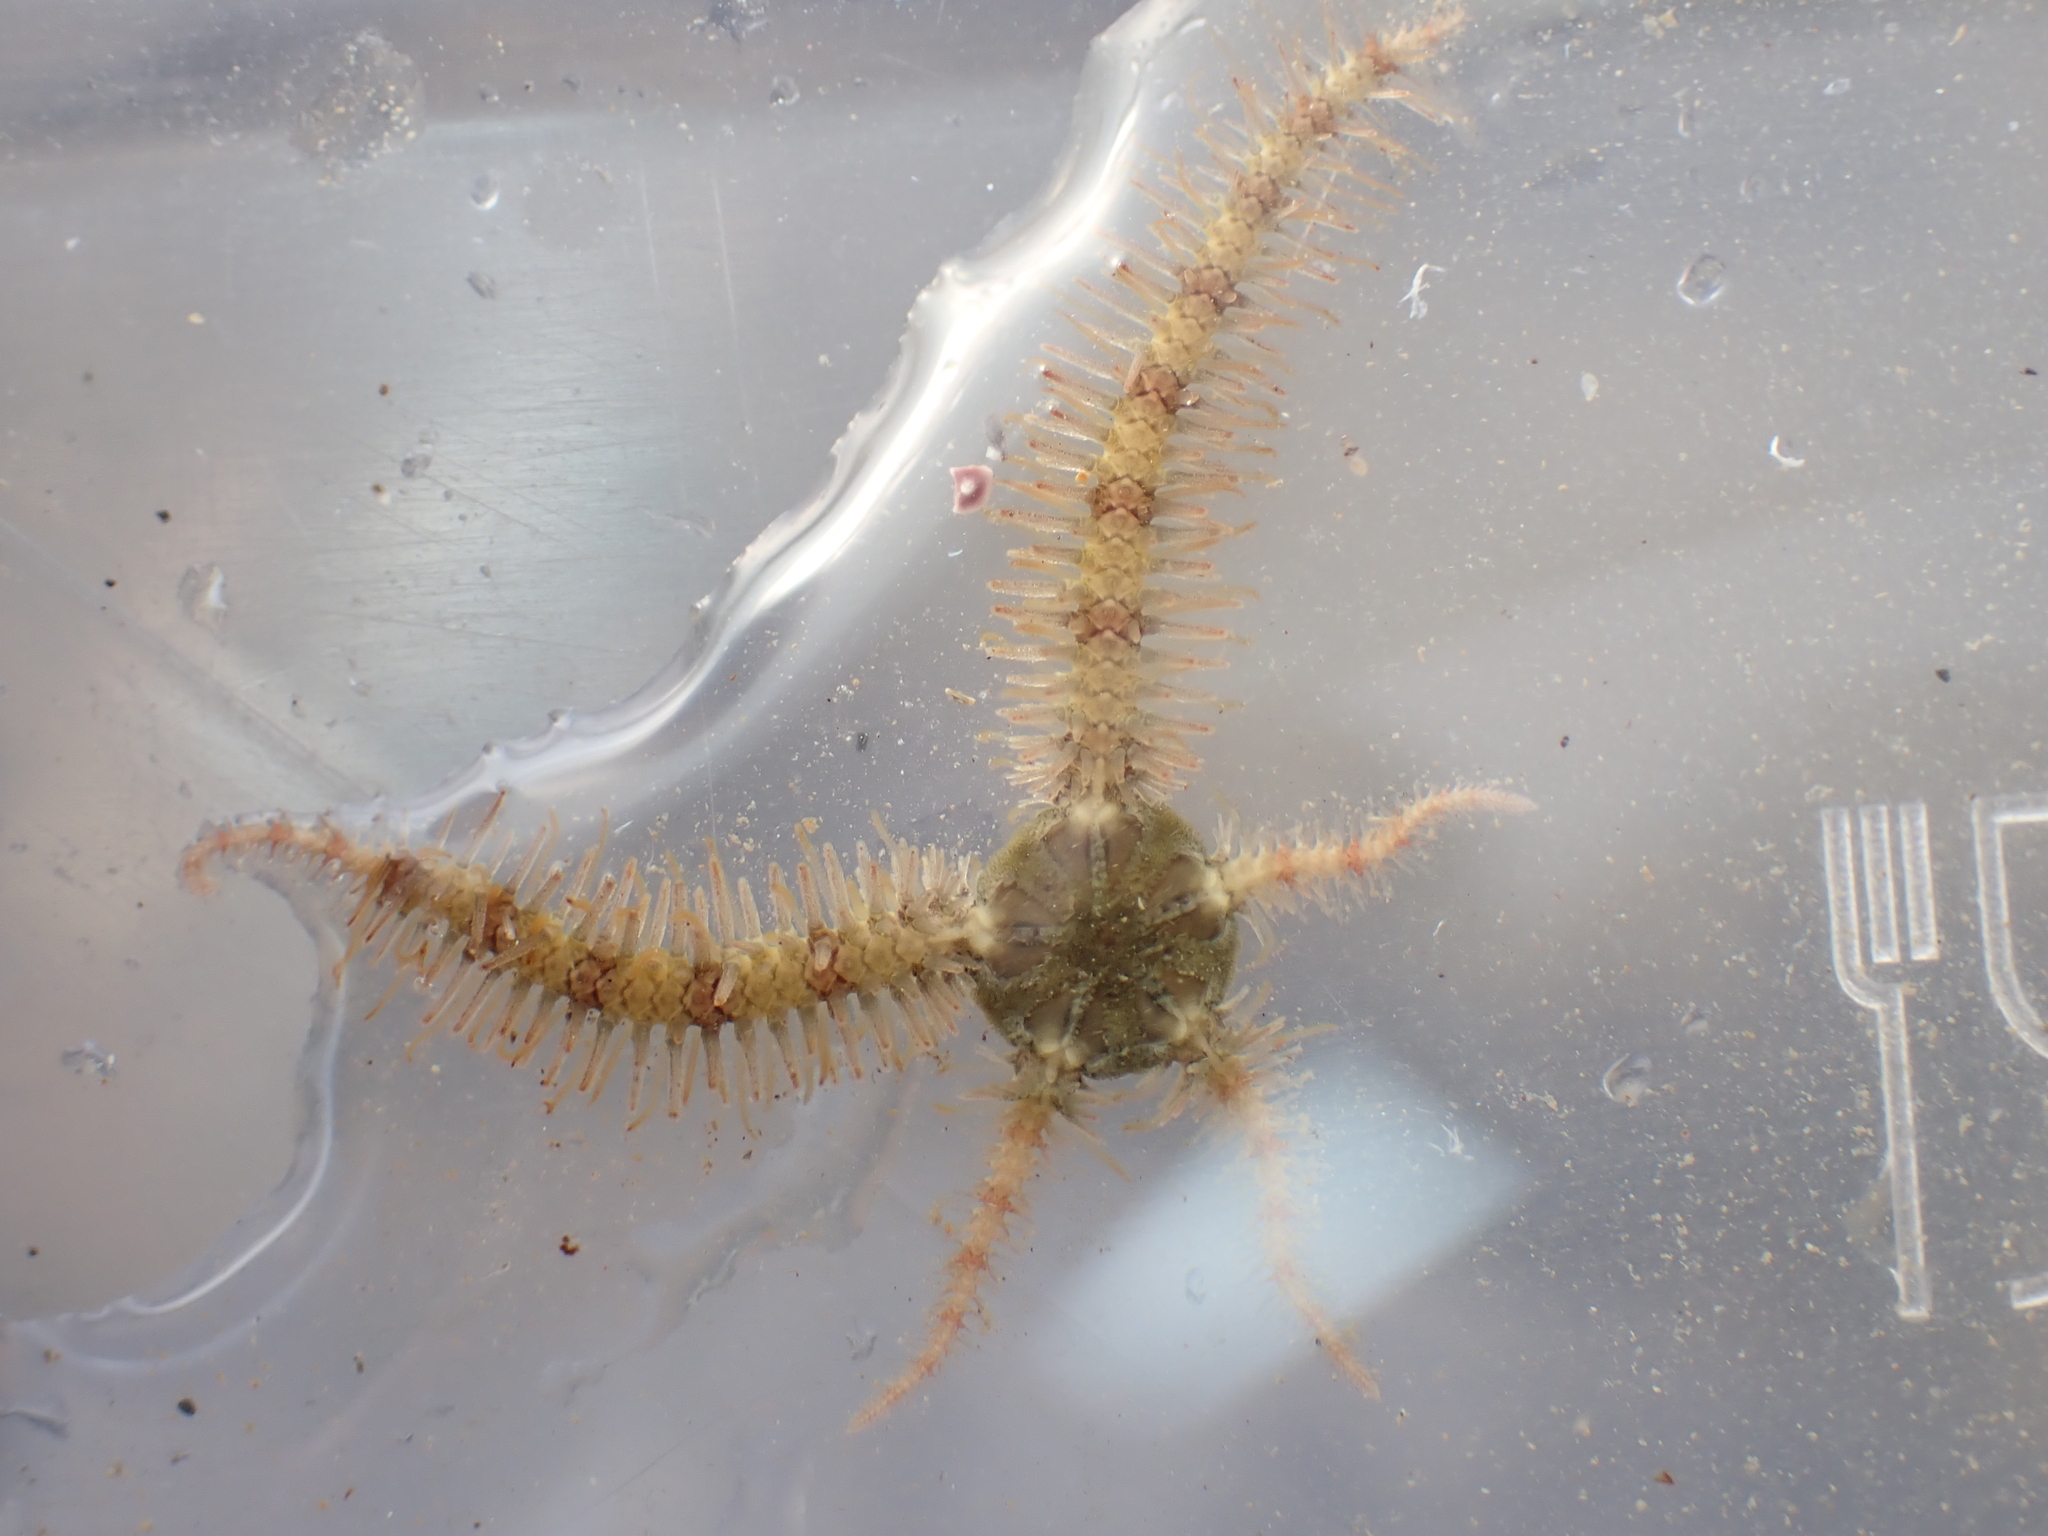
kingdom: Animalia
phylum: Echinodermata
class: Ophiuroidea
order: Amphilepidida
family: Ophiotrichidae
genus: Ophiothrix
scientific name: Ophiothrix fragilis
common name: Common brittlestar
